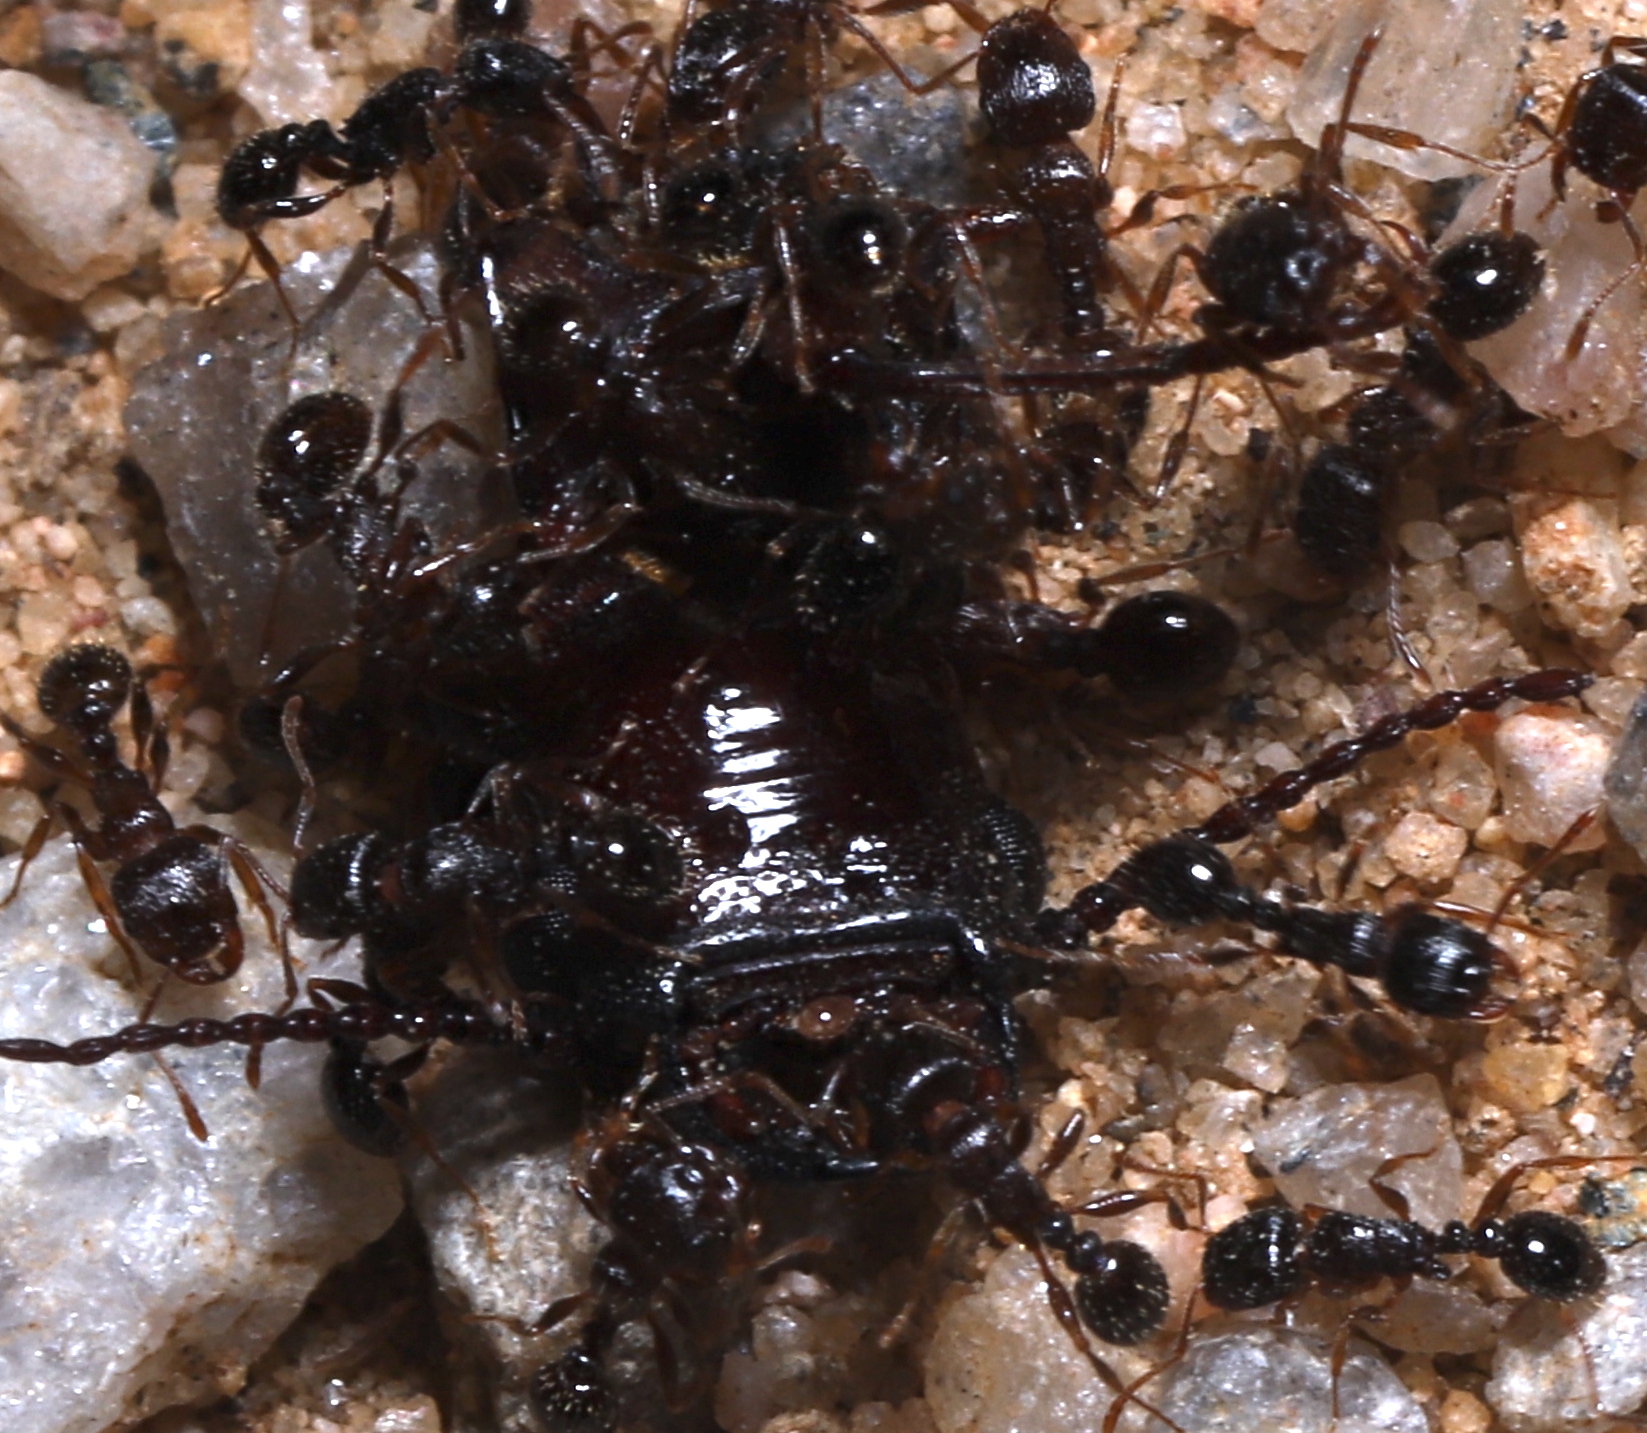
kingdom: Animalia
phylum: Arthropoda
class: Insecta
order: Hymenoptera
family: Formicidae
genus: Tetramorium
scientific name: Tetramorium immigrans
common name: Pavement ant
